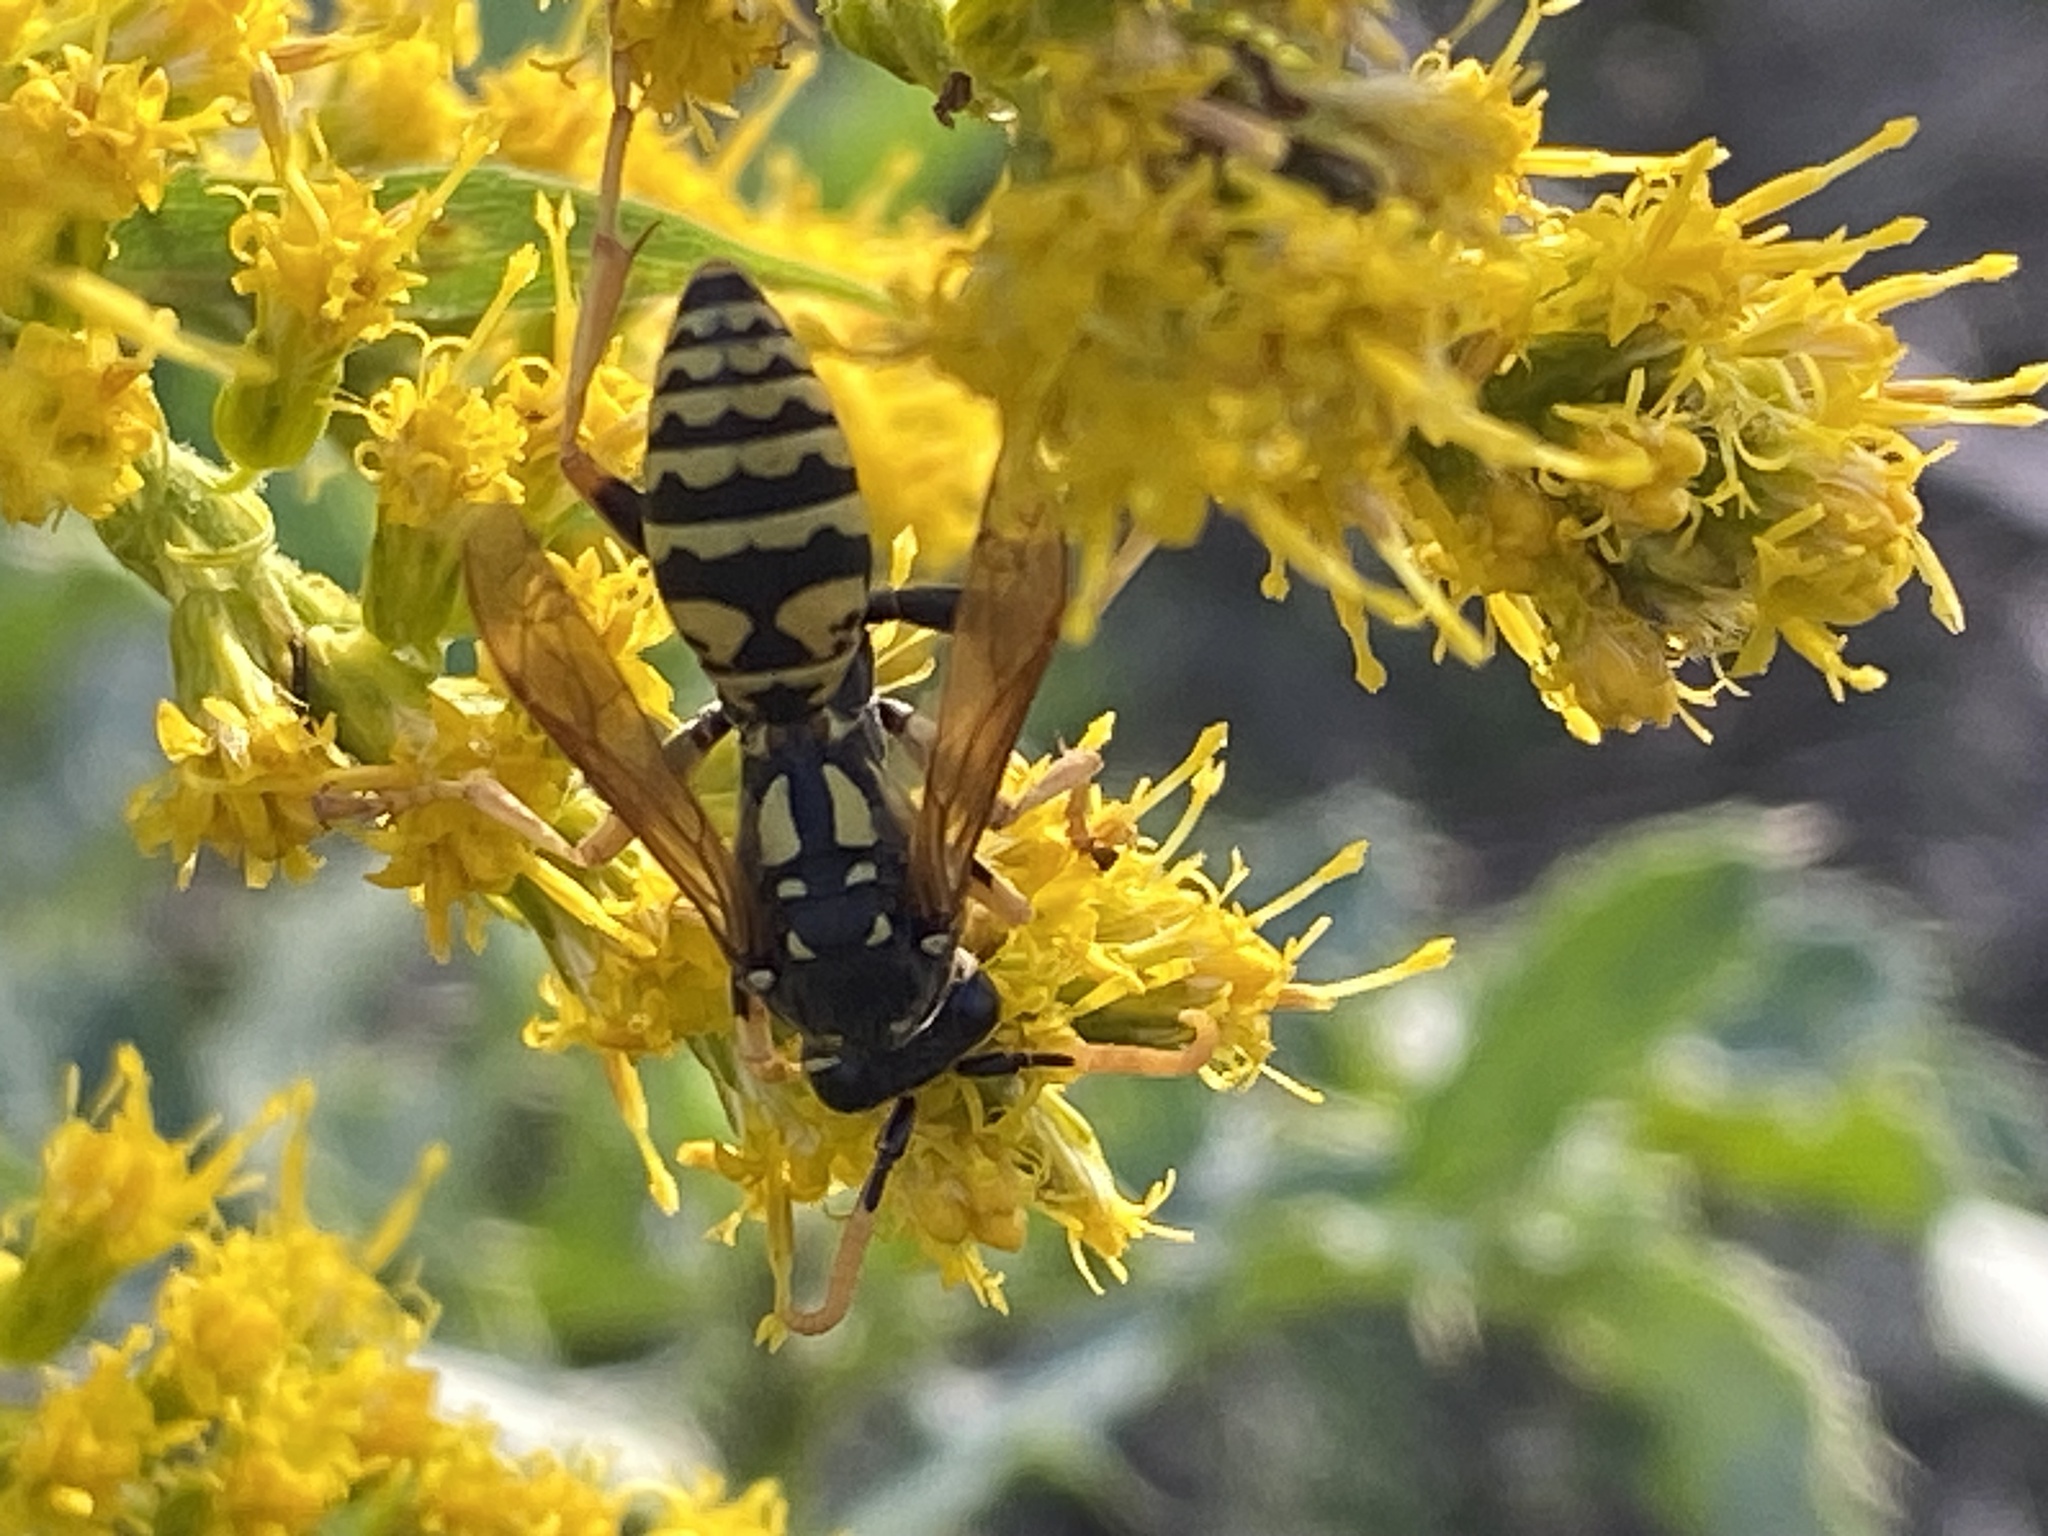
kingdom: Animalia
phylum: Arthropoda
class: Insecta
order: Hymenoptera
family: Eumenidae
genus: Polistes
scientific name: Polistes dominula
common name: Paper wasp
